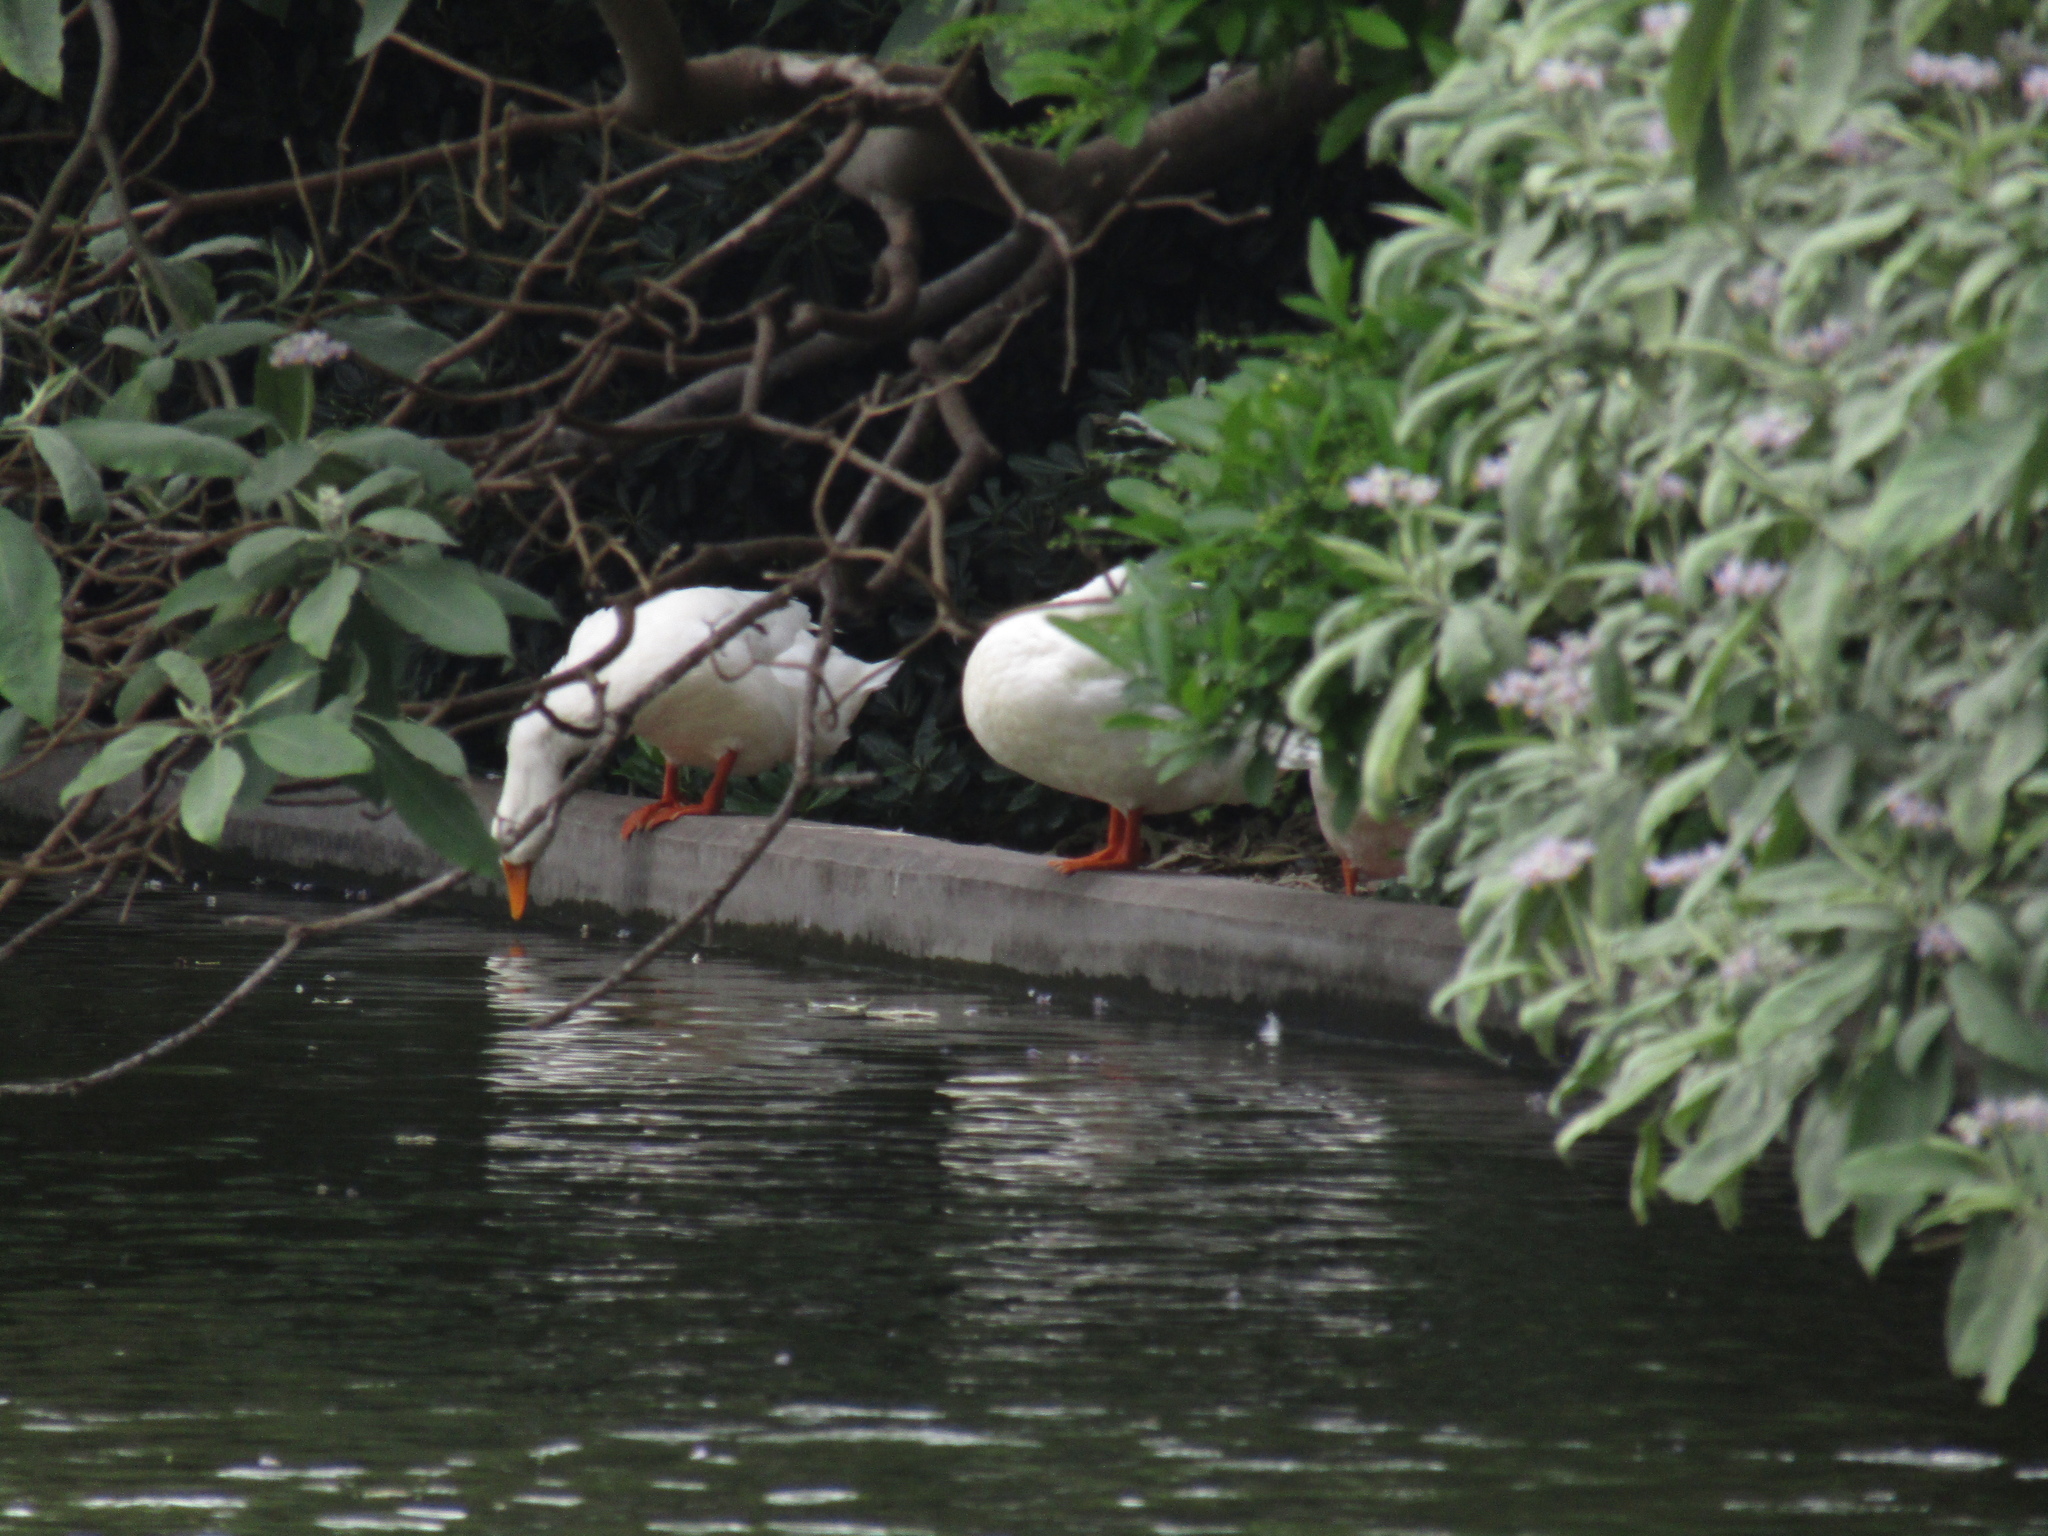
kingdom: Animalia
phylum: Chordata
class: Aves
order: Anseriformes
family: Anatidae
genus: Anas
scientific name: Anas platyrhynchos
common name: Mallard
